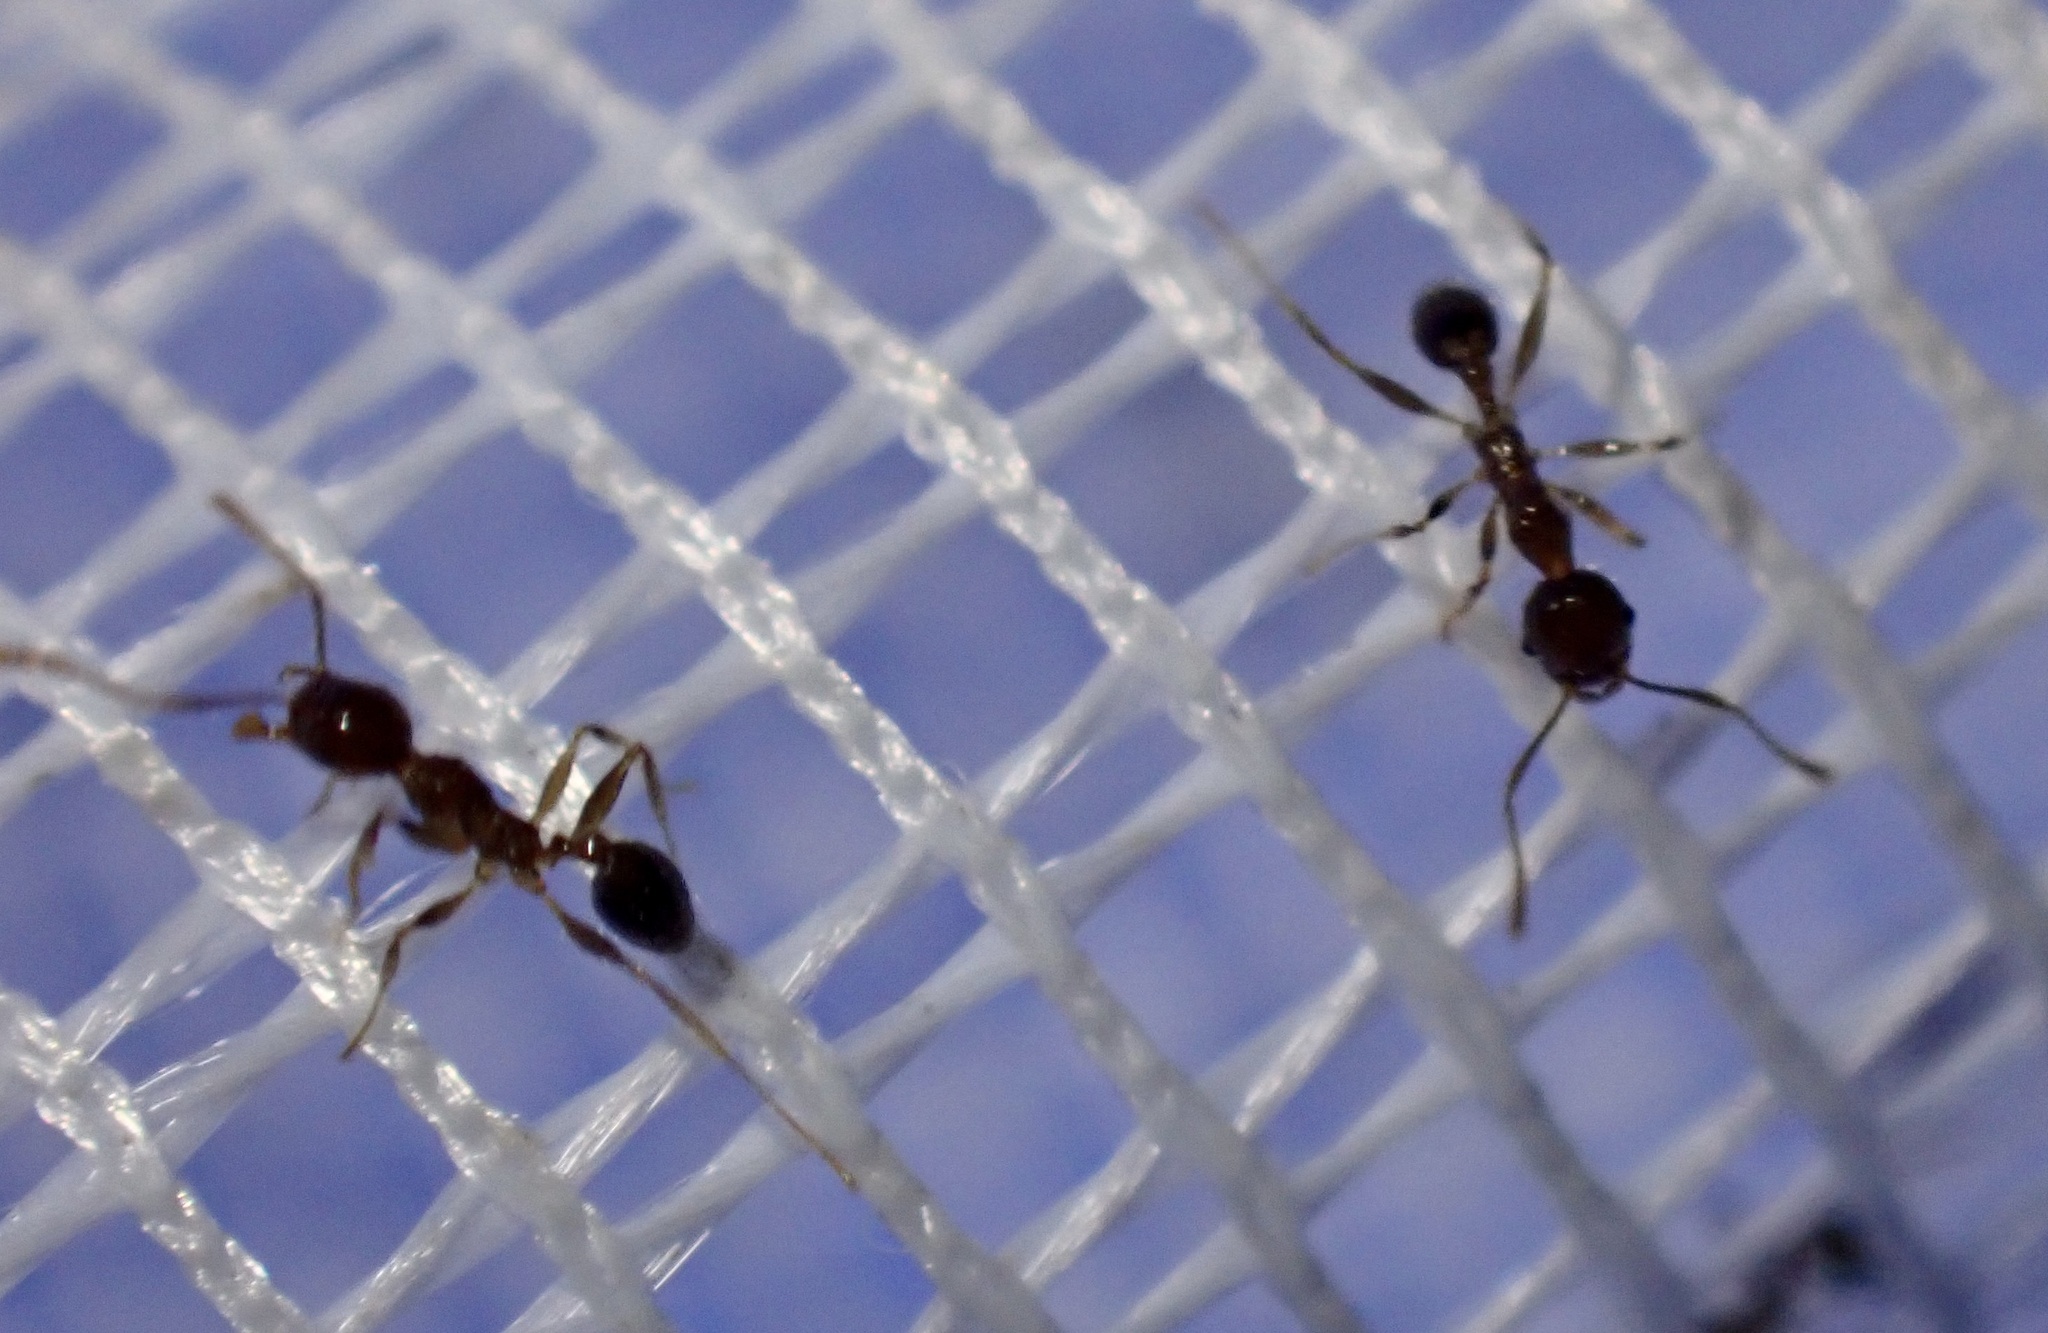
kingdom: Animalia
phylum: Arthropoda
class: Insecta
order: Hymenoptera
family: Formicidae
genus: Pheidole
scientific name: Pheidole megacephala
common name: Bigheaded ant
